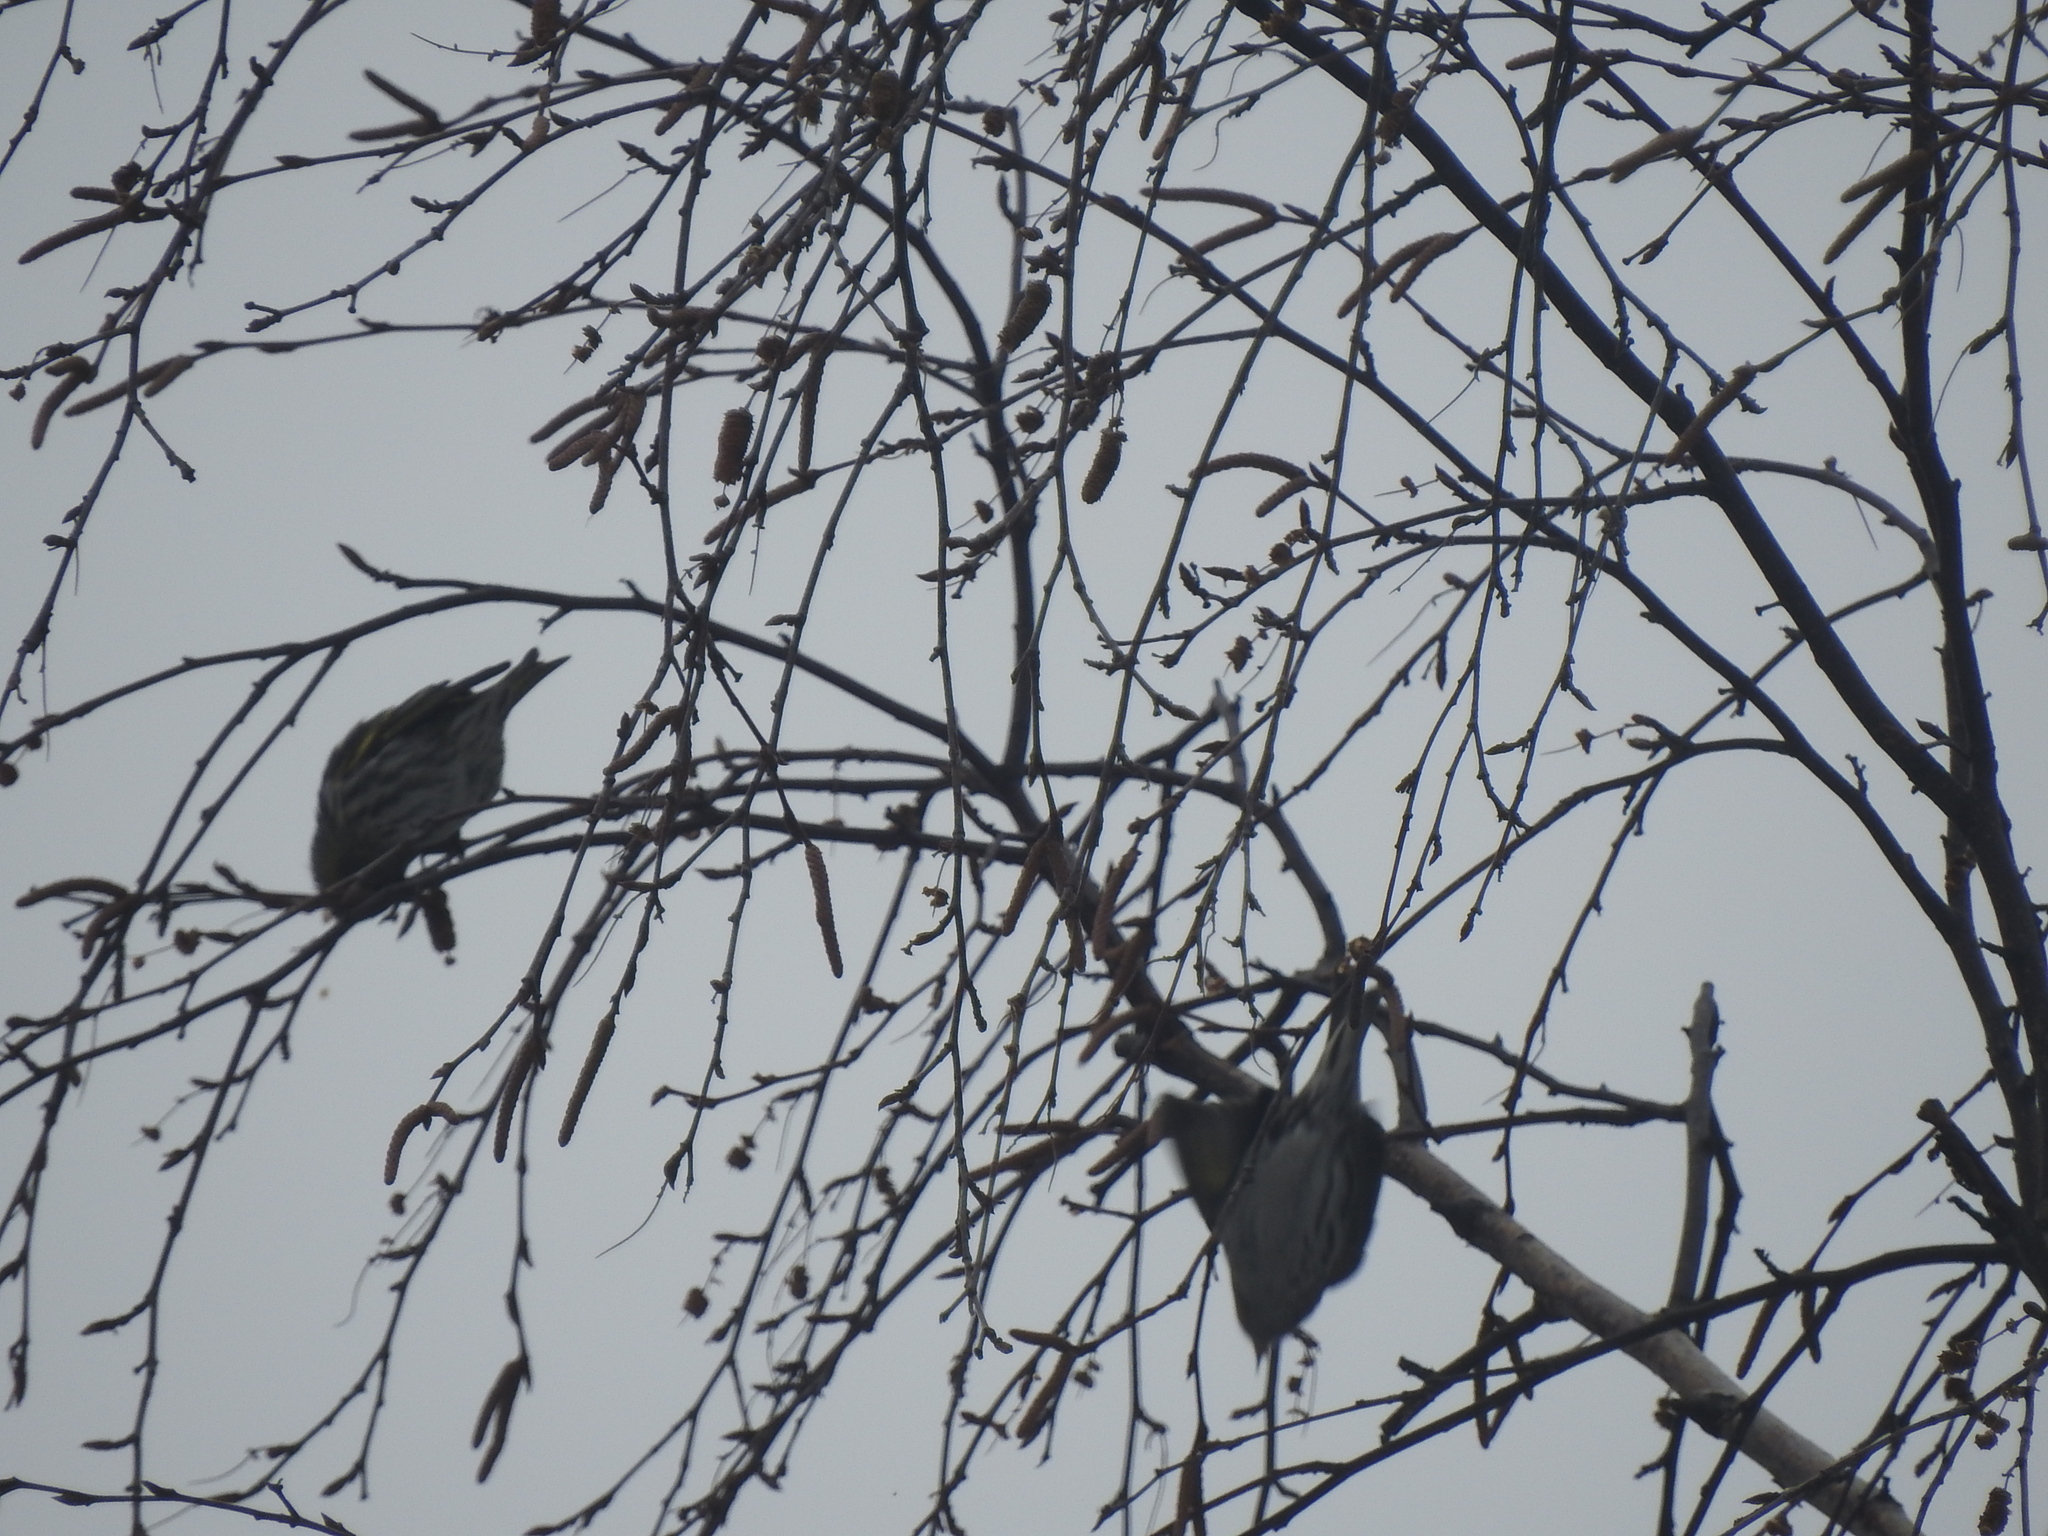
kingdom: Animalia
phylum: Chordata
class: Aves
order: Passeriformes
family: Fringillidae
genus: Spinus
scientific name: Spinus spinus
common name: Eurasian siskin
